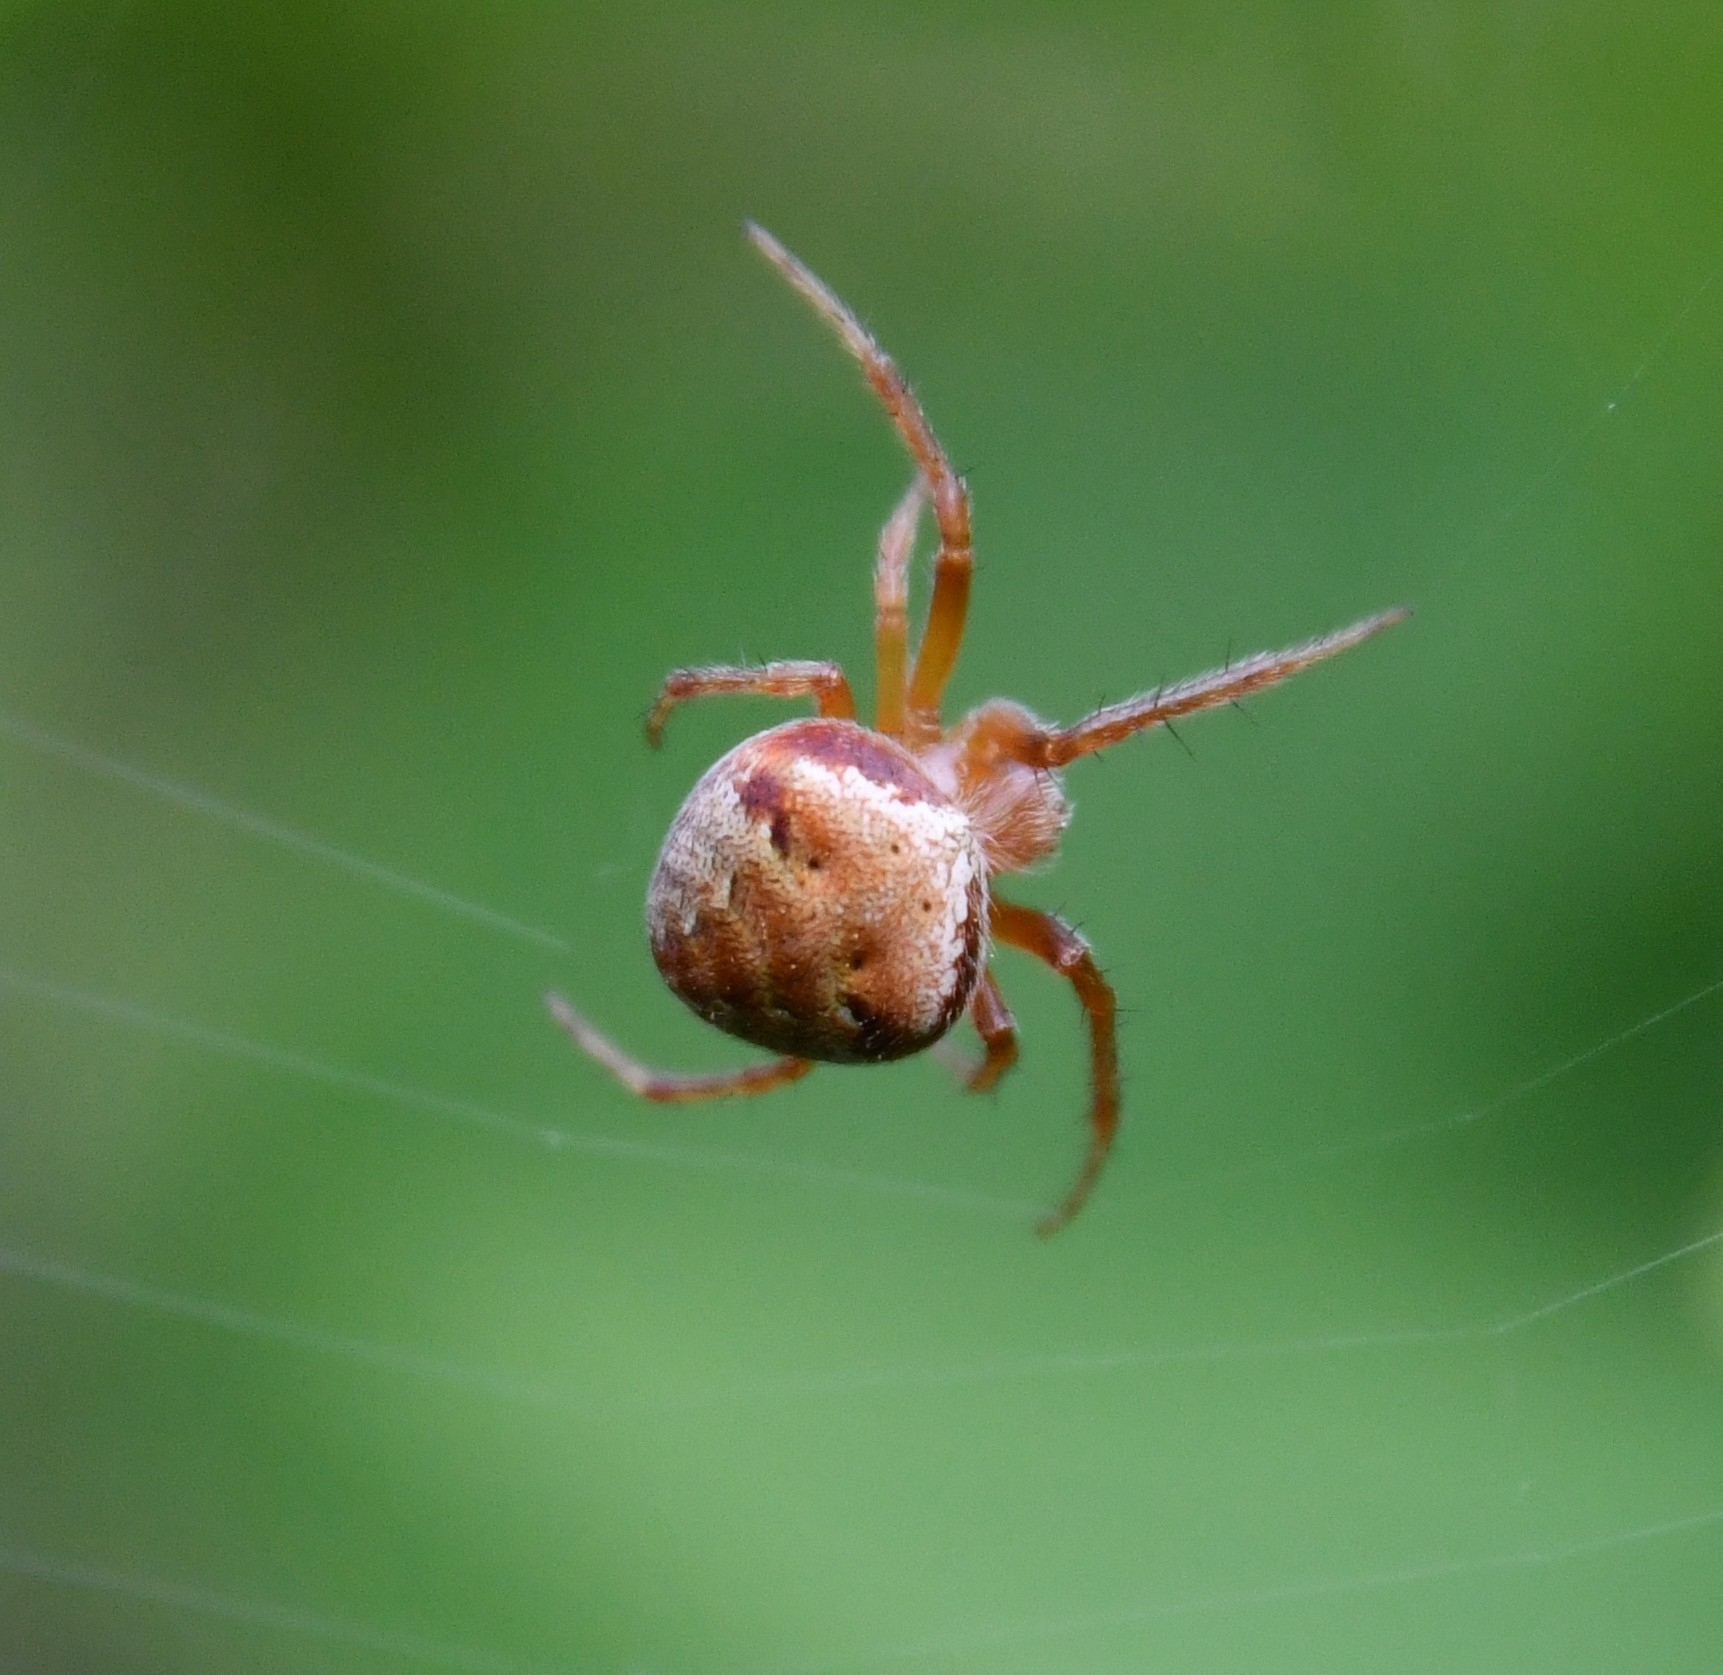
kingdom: Animalia
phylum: Arthropoda
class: Arachnida
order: Araneae
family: Araneidae
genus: Araneus
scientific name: Araneus triguttatus
